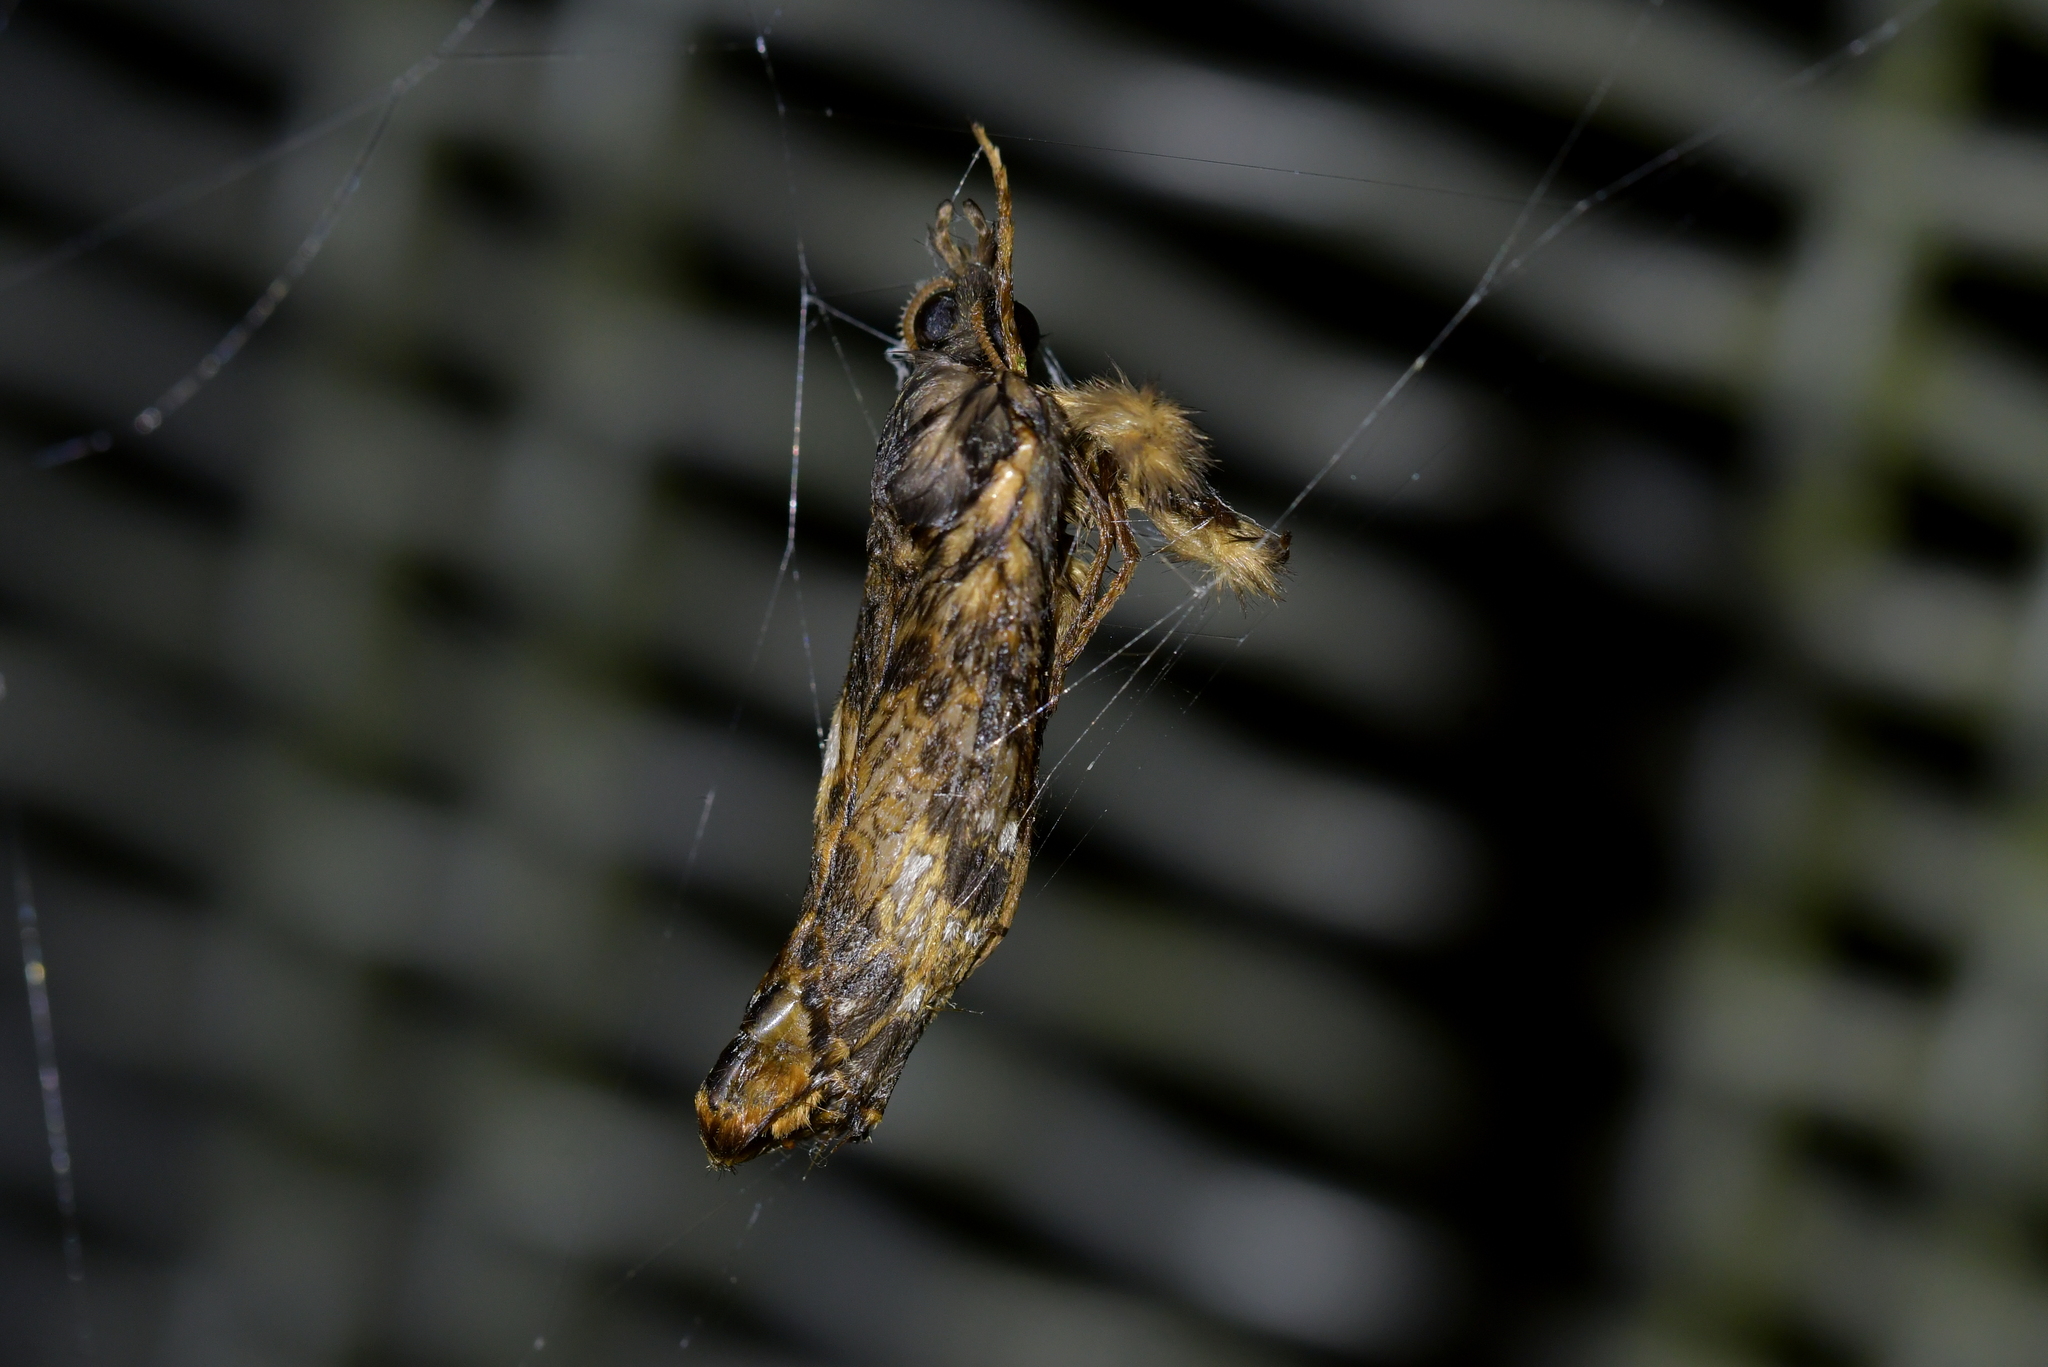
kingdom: Animalia
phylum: Arthropoda
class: Insecta
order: Lepidoptera
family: Hepialidae
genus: Cladoxycanus
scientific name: Cladoxycanus minos
